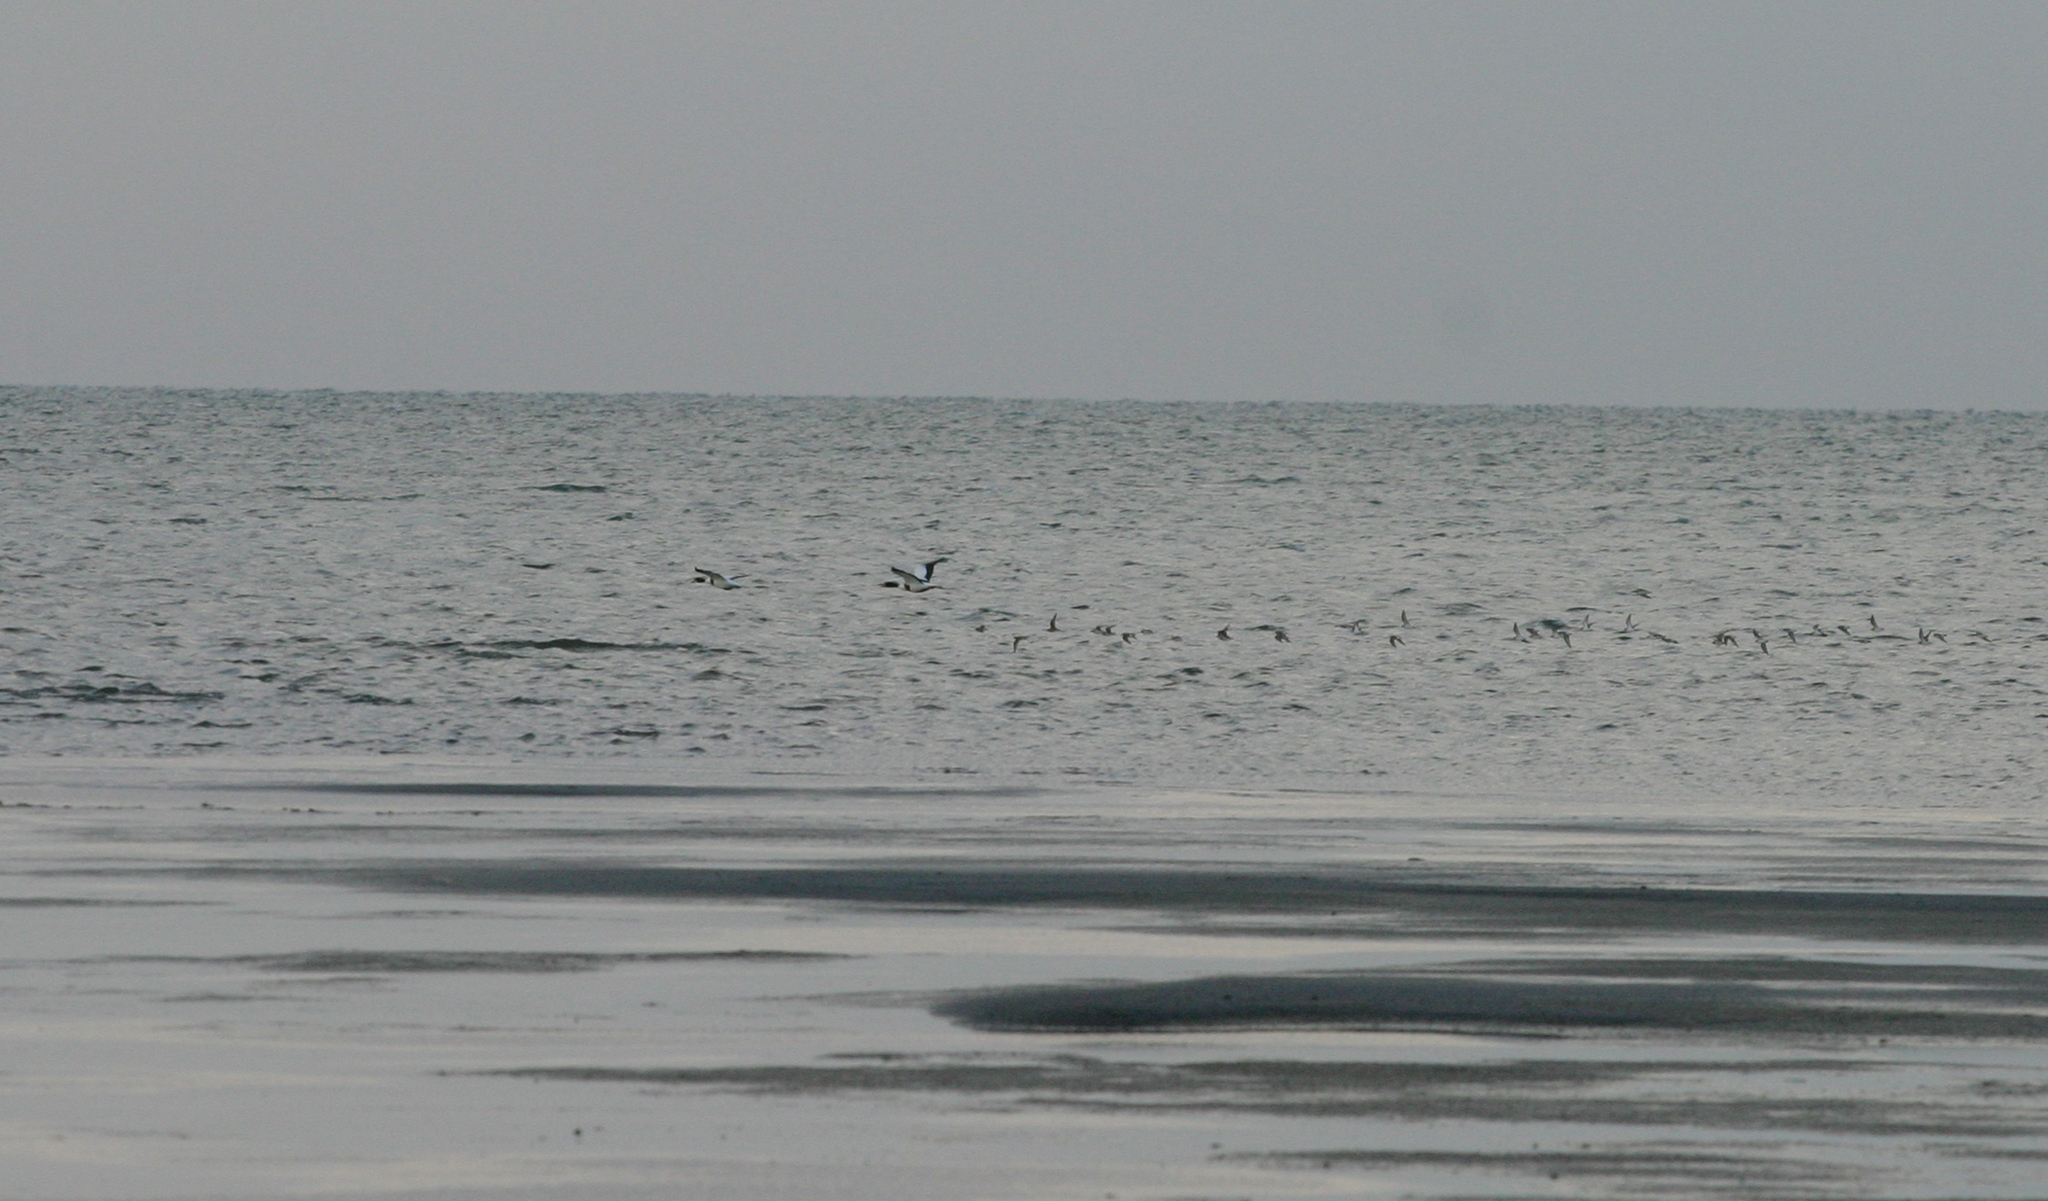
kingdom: Animalia
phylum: Chordata
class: Aves
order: Anseriformes
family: Anatidae
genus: Tadorna
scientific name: Tadorna tadorna
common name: Common shelduck
